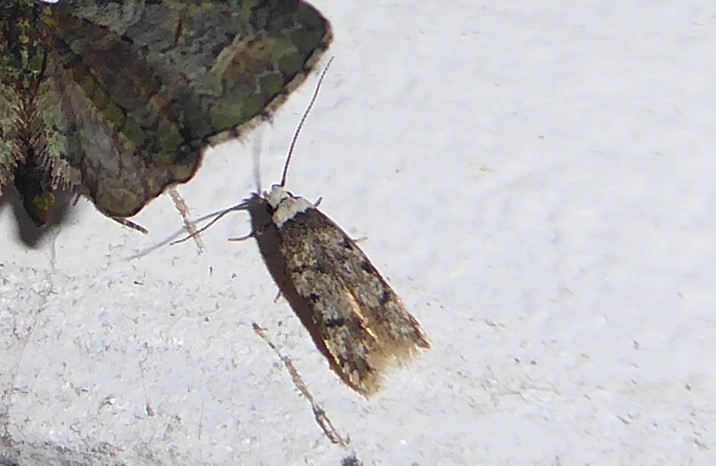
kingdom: Animalia
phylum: Arthropoda
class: Insecta
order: Lepidoptera
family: Oecophoridae
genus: Endrosis
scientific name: Endrosis sarcitrella
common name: White-shouldered house moth
